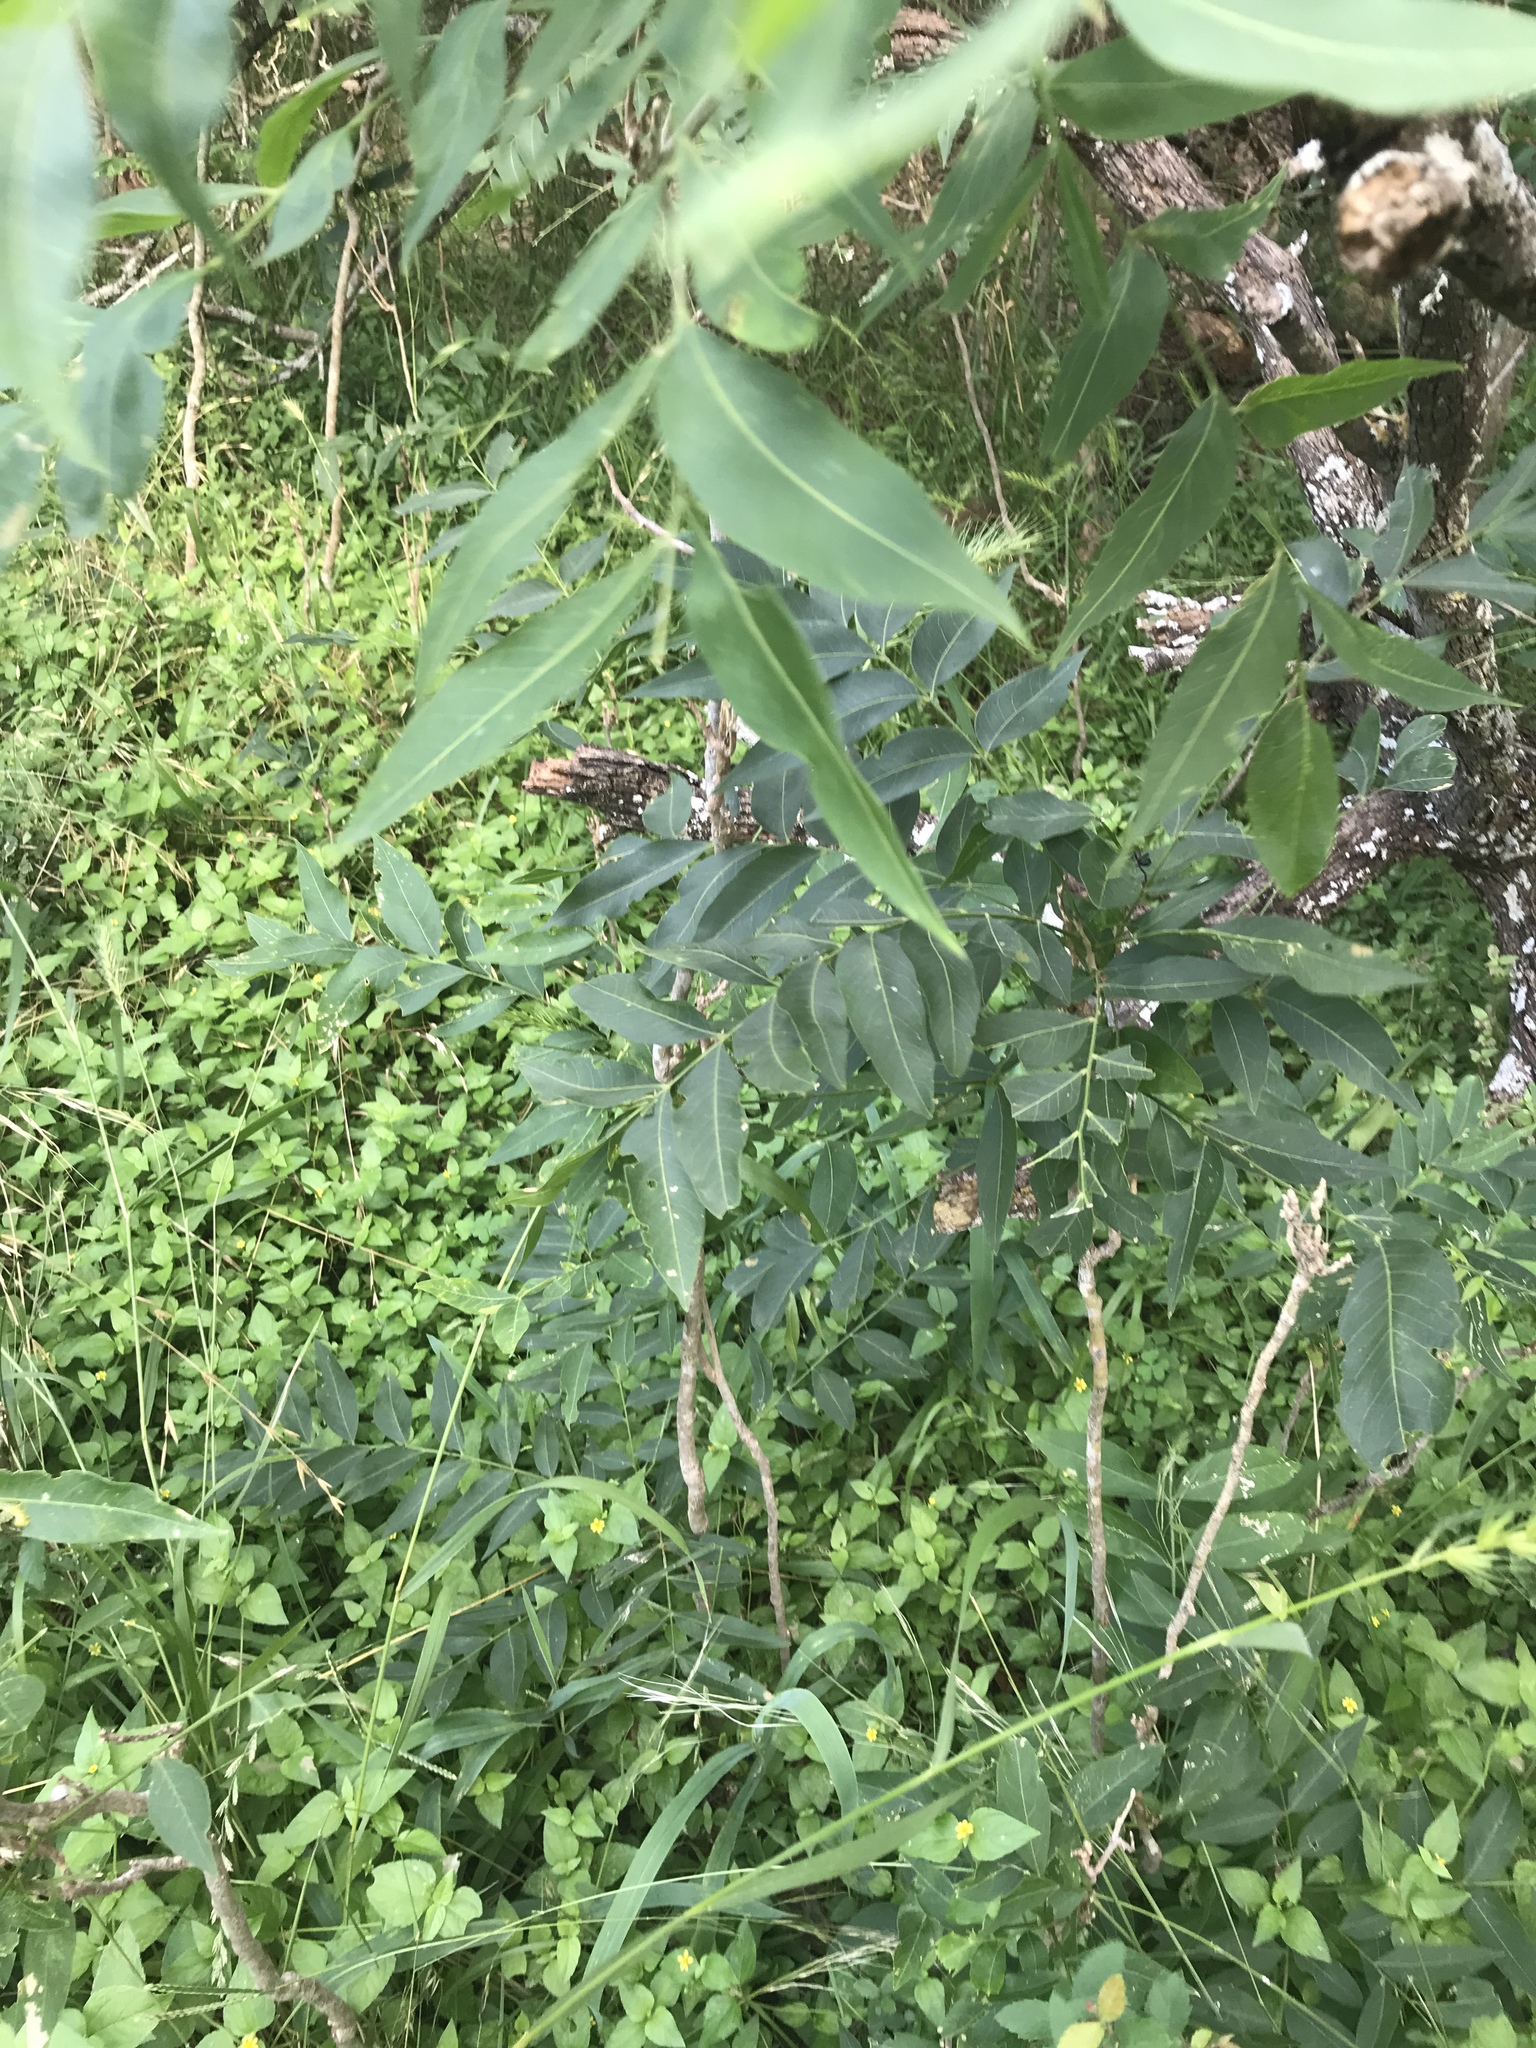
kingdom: Plantae
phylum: Tracheophyta
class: Magnoliopsida
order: Sapindales
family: Sapindaceae
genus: Sapindus
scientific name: Sapindus drummondii
